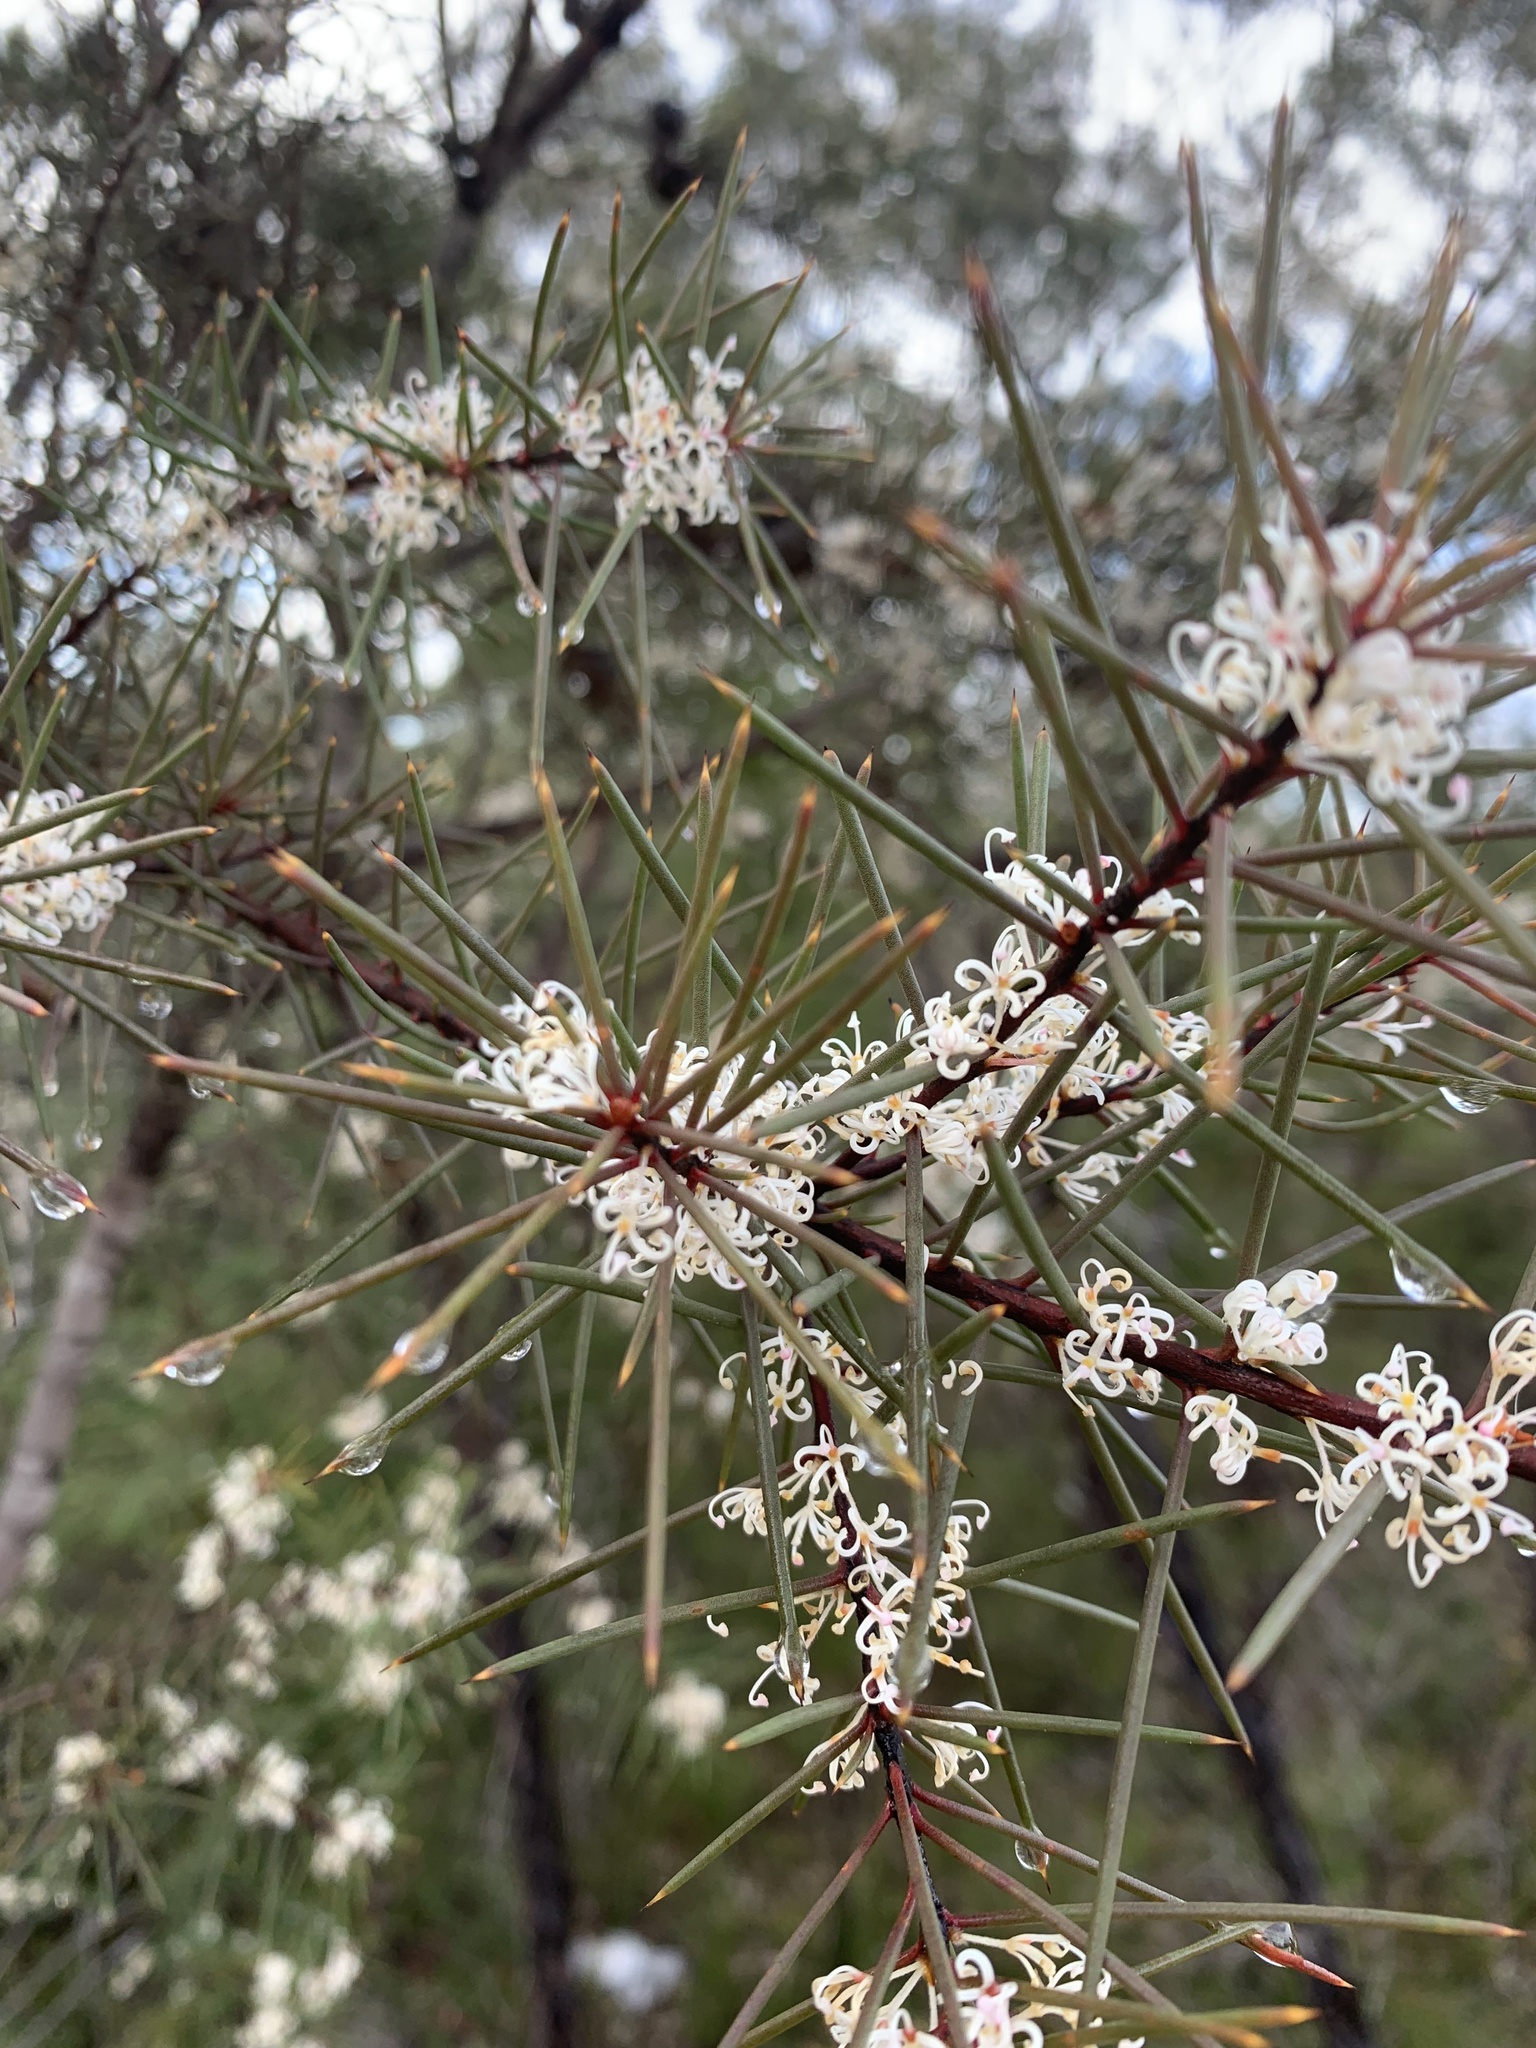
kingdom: Plantae
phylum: Tracheophyta
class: Magnoliopsida
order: Proteales
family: Proteaceae
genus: Hakea
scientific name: Hakea sericea
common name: Needle bush
